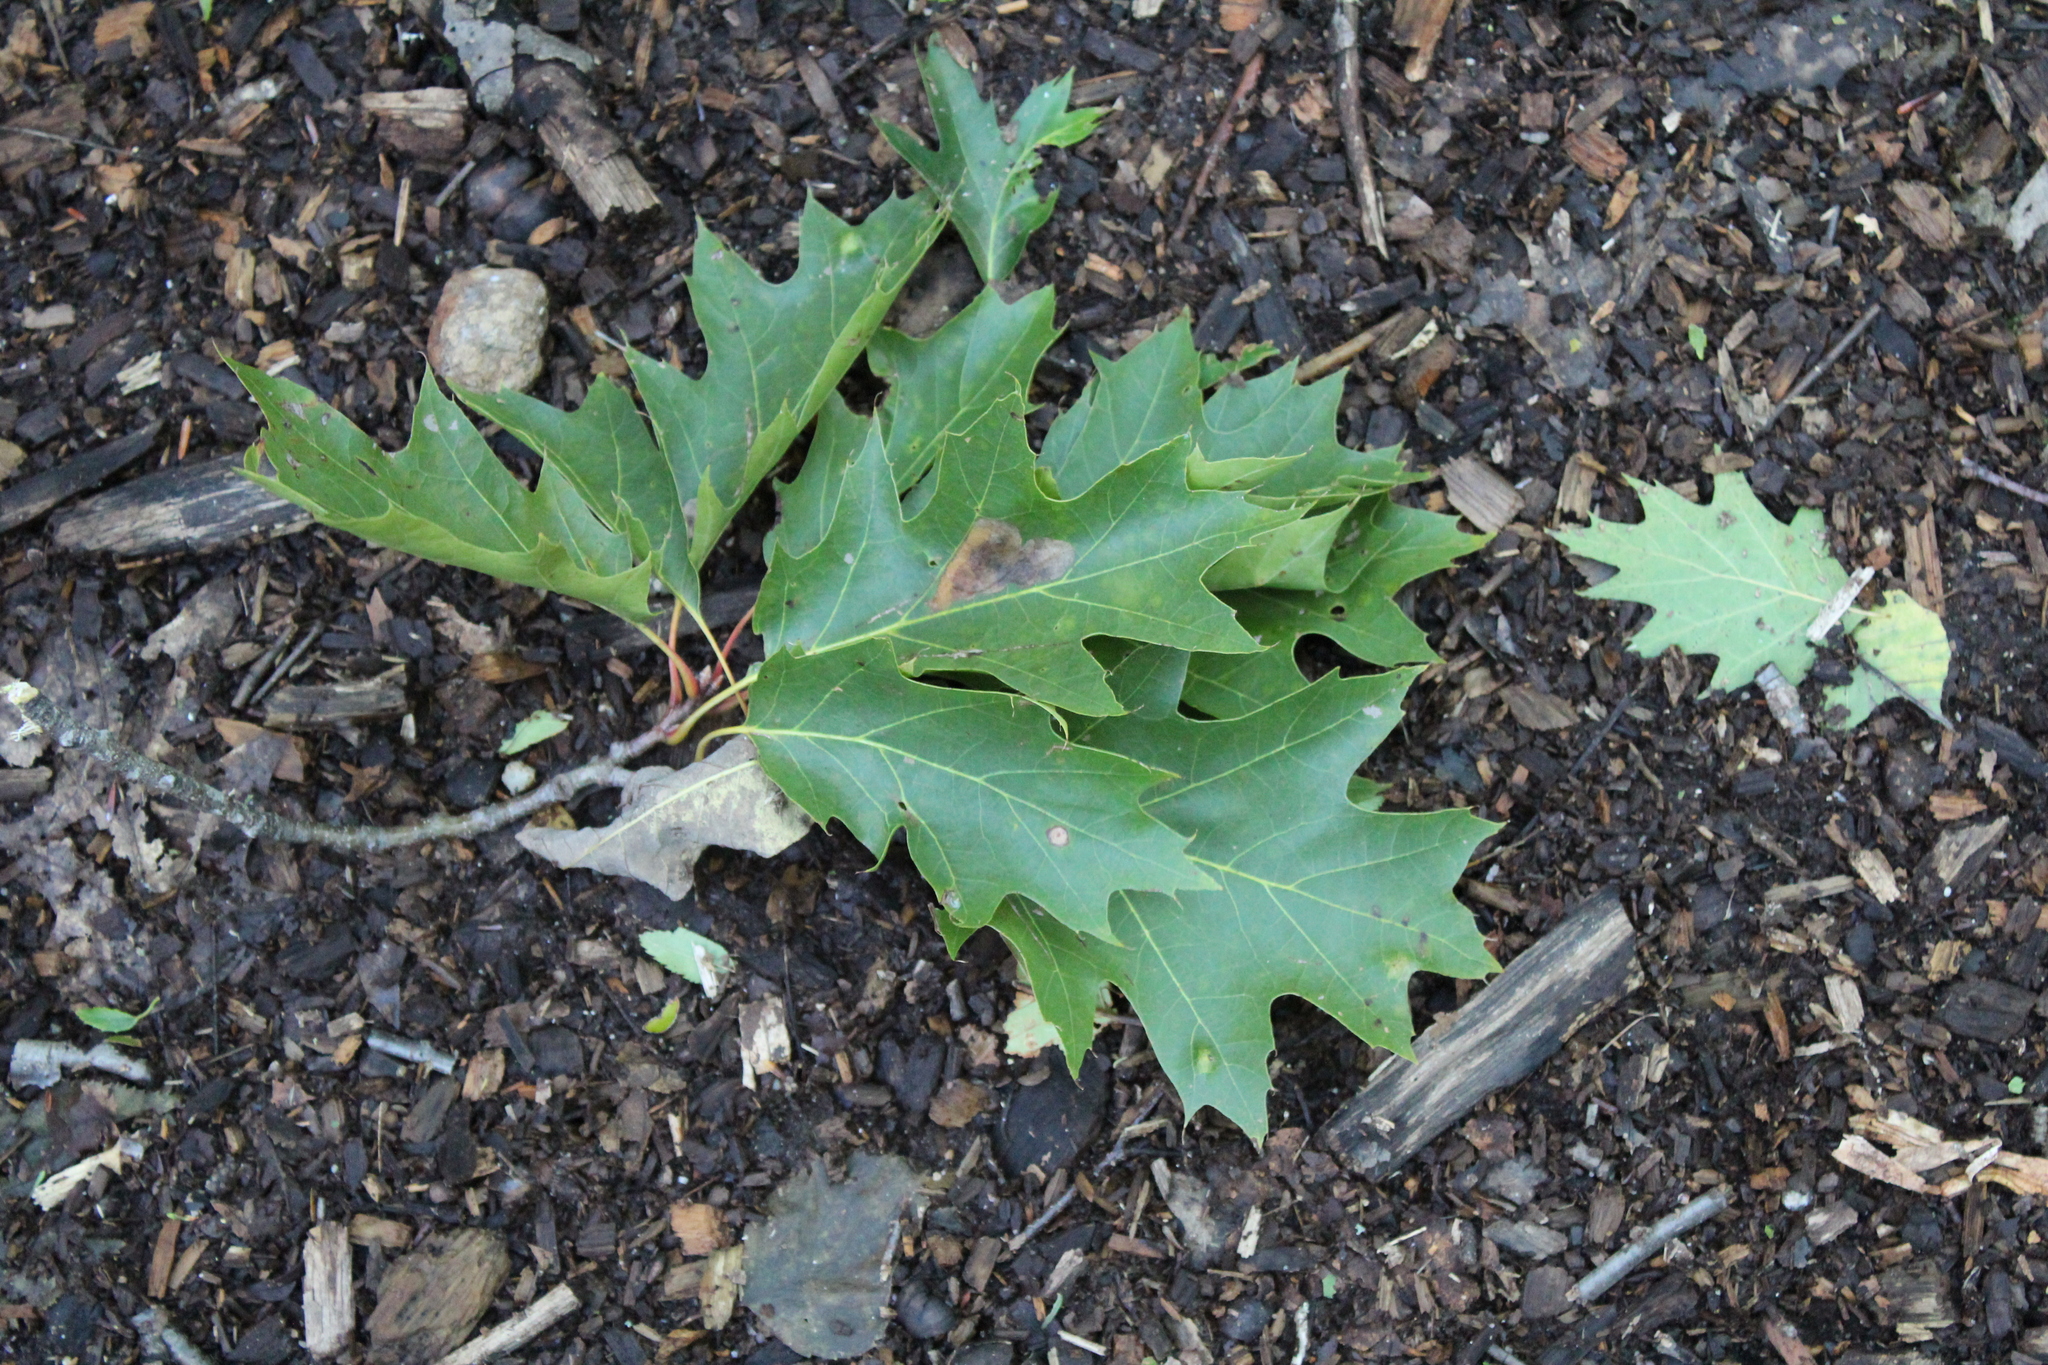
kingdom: Plantae
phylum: Tracheophyta
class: Magnoliopsida
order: Fagales
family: Fagaceae
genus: Quercus
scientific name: Quercus rubra
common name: Red oak
